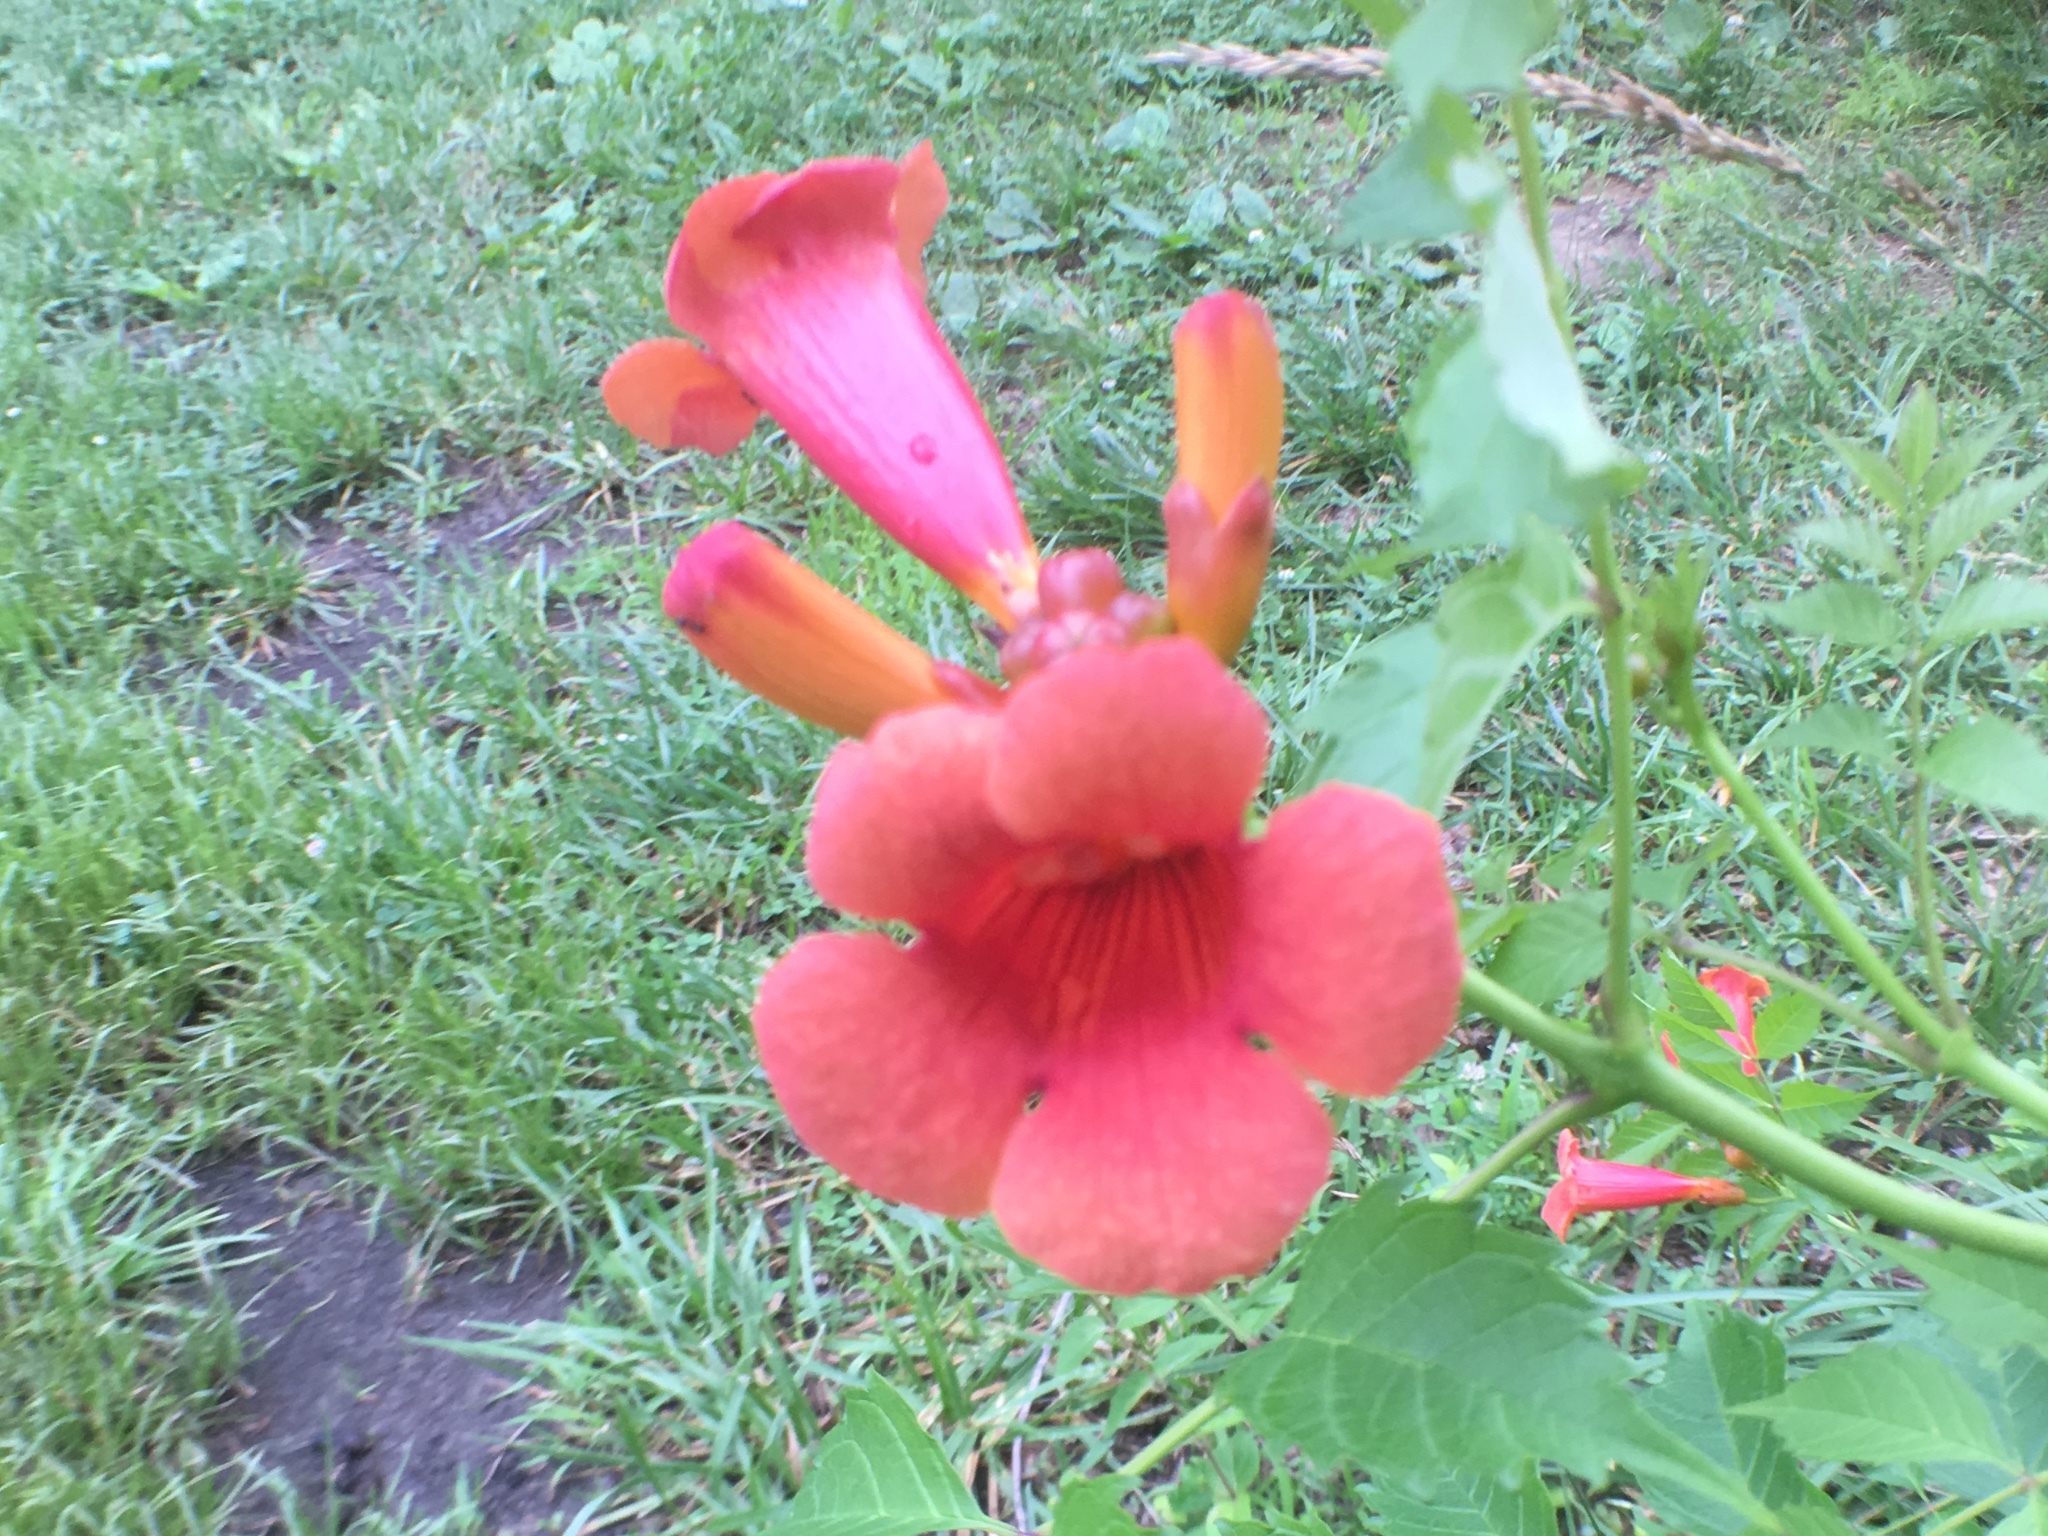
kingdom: Plantae
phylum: Tracheophyta
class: Magnoliopsida
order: Lamiales
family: Bignoniaceae
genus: Campsis
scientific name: Campsis radicans
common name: Trumpet-creeper
